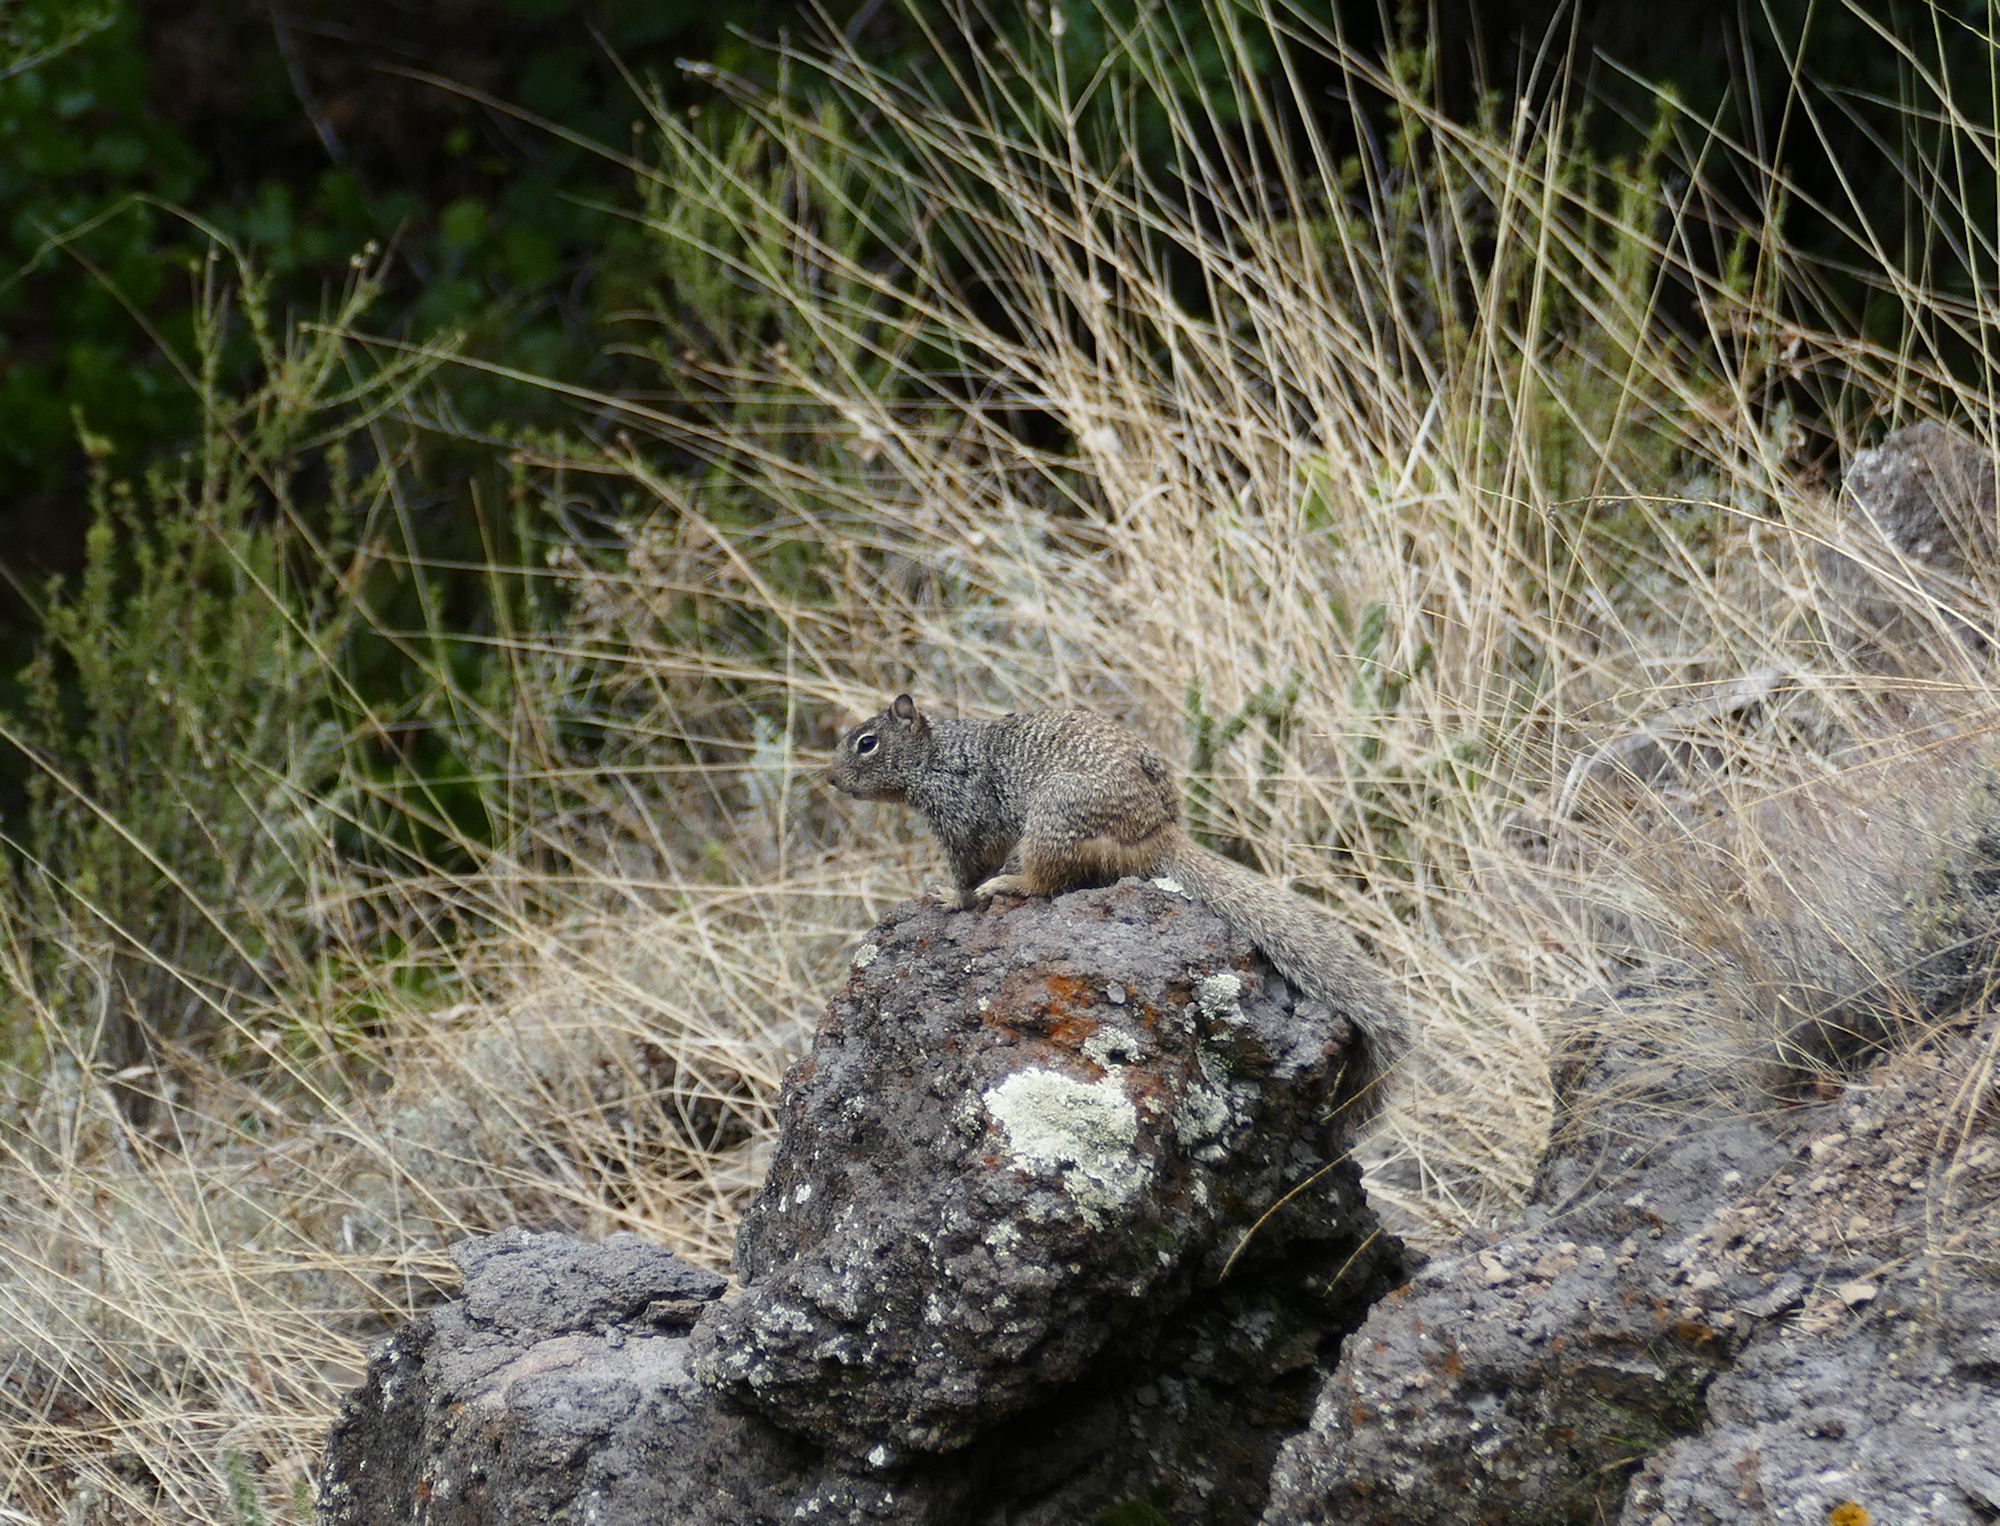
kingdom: Animalia
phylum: Chordata
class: Mammalia
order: Rodentia
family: Sciuridae
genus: Otospermophilus
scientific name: Otospermophilus variegatus
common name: Rock squirrel
